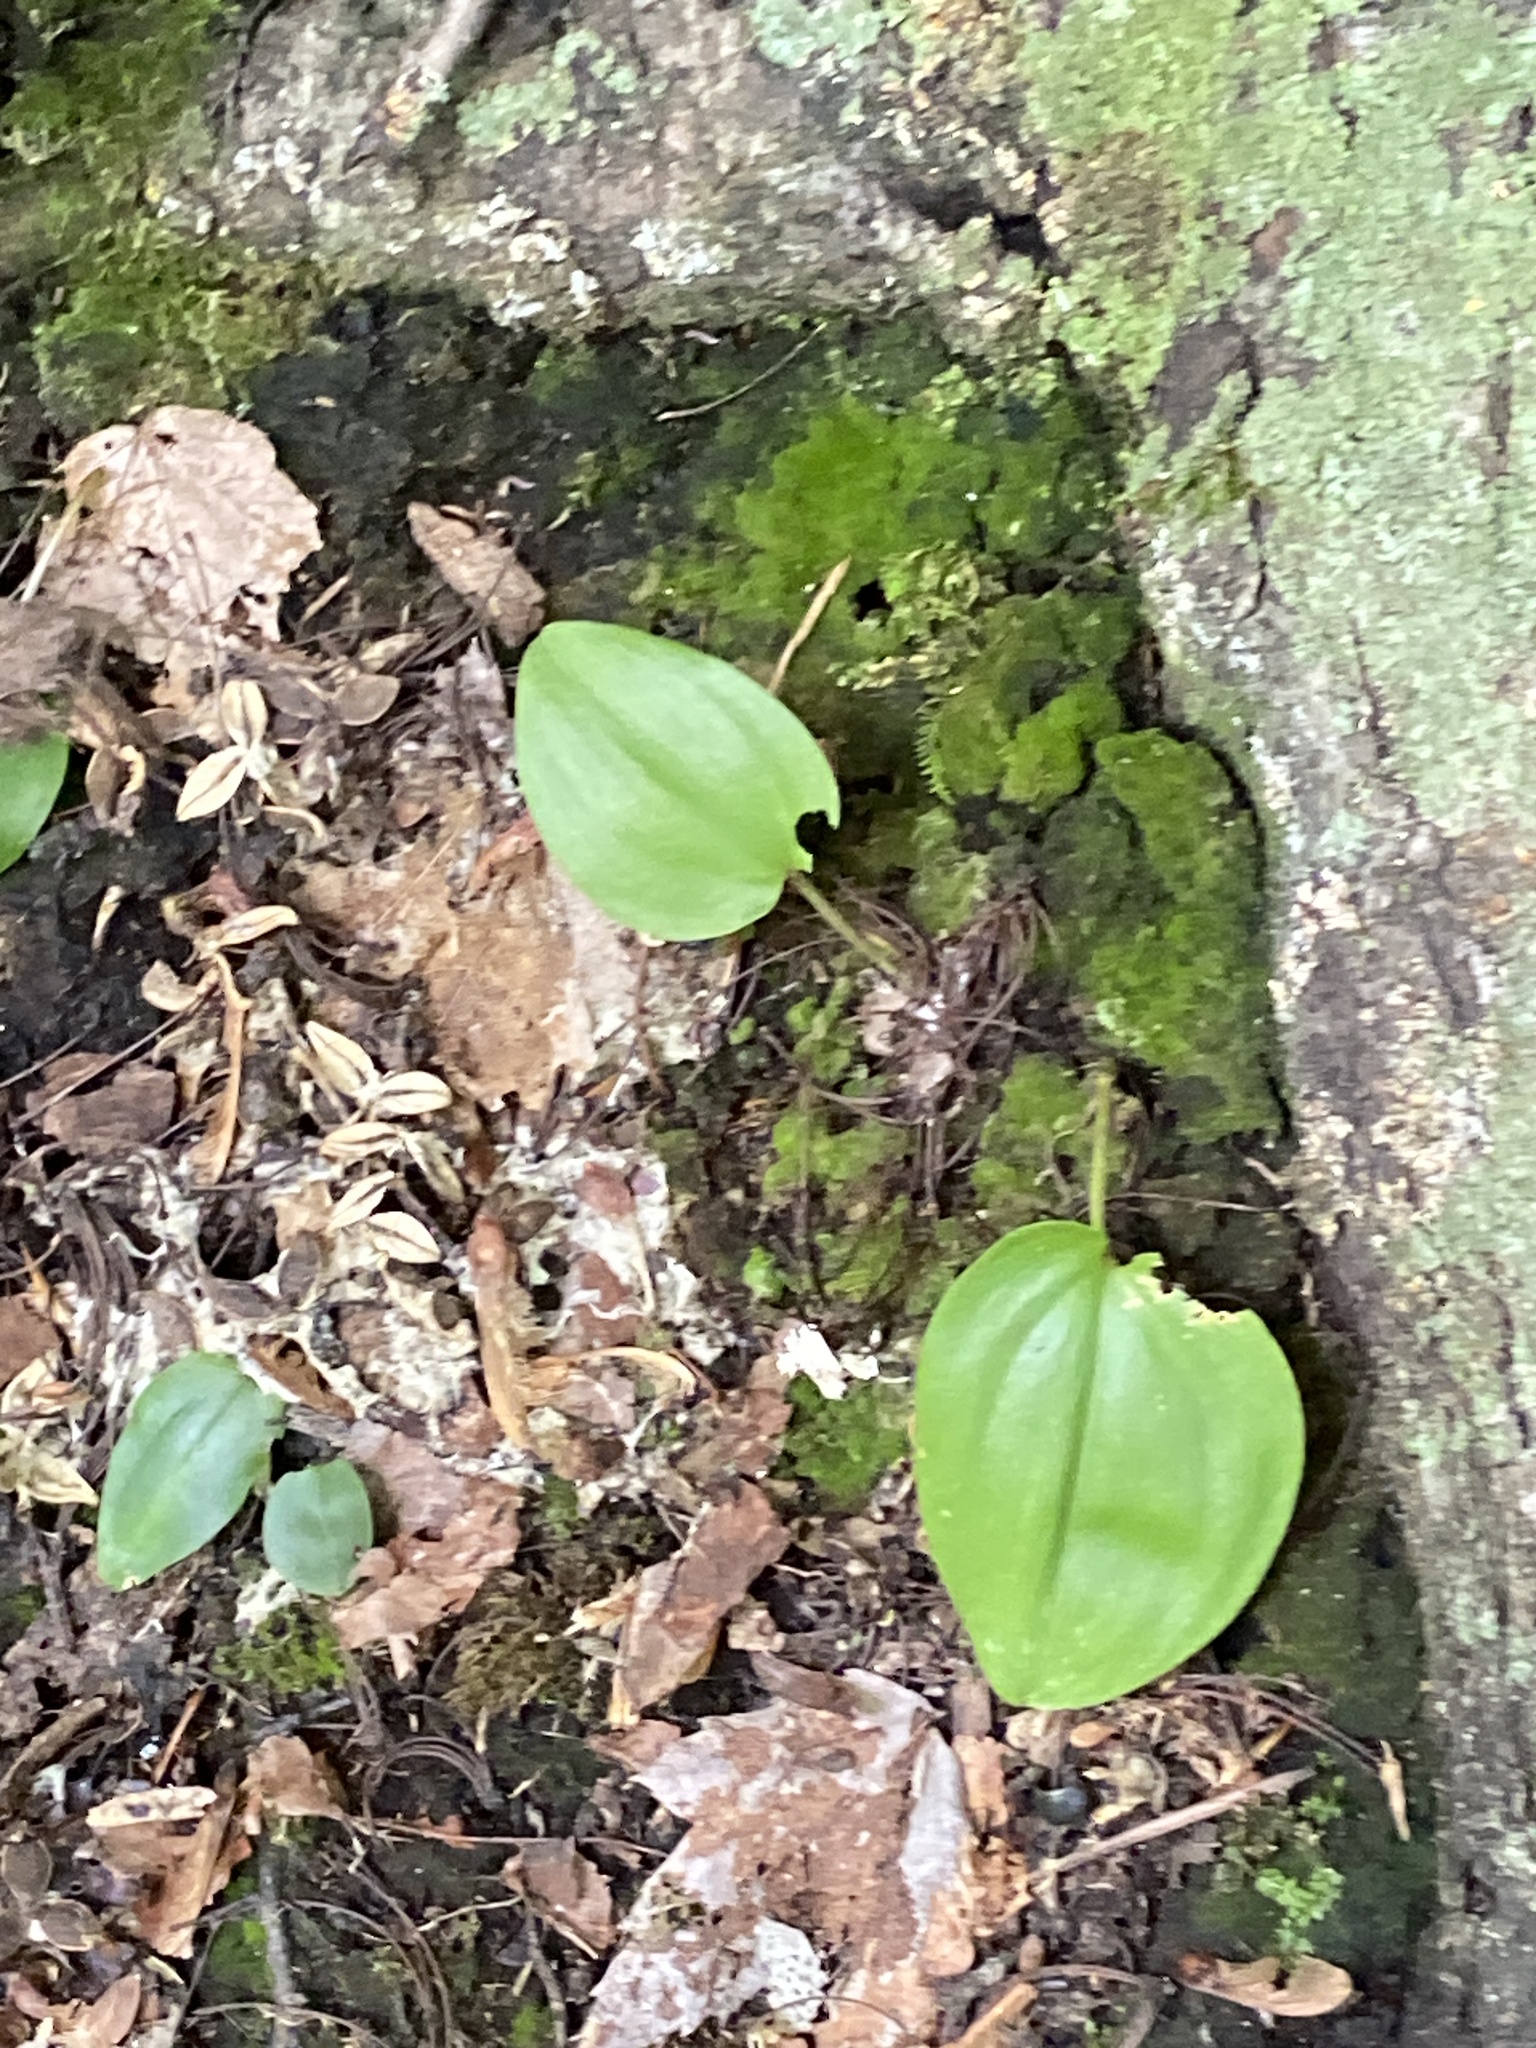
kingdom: Plantae
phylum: Tracheophyta
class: Liliopsida
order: Asparagales
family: Asparagaceae
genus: Maianthemum
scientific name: Maianthemum canadense
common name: False lily-of-the-valley
